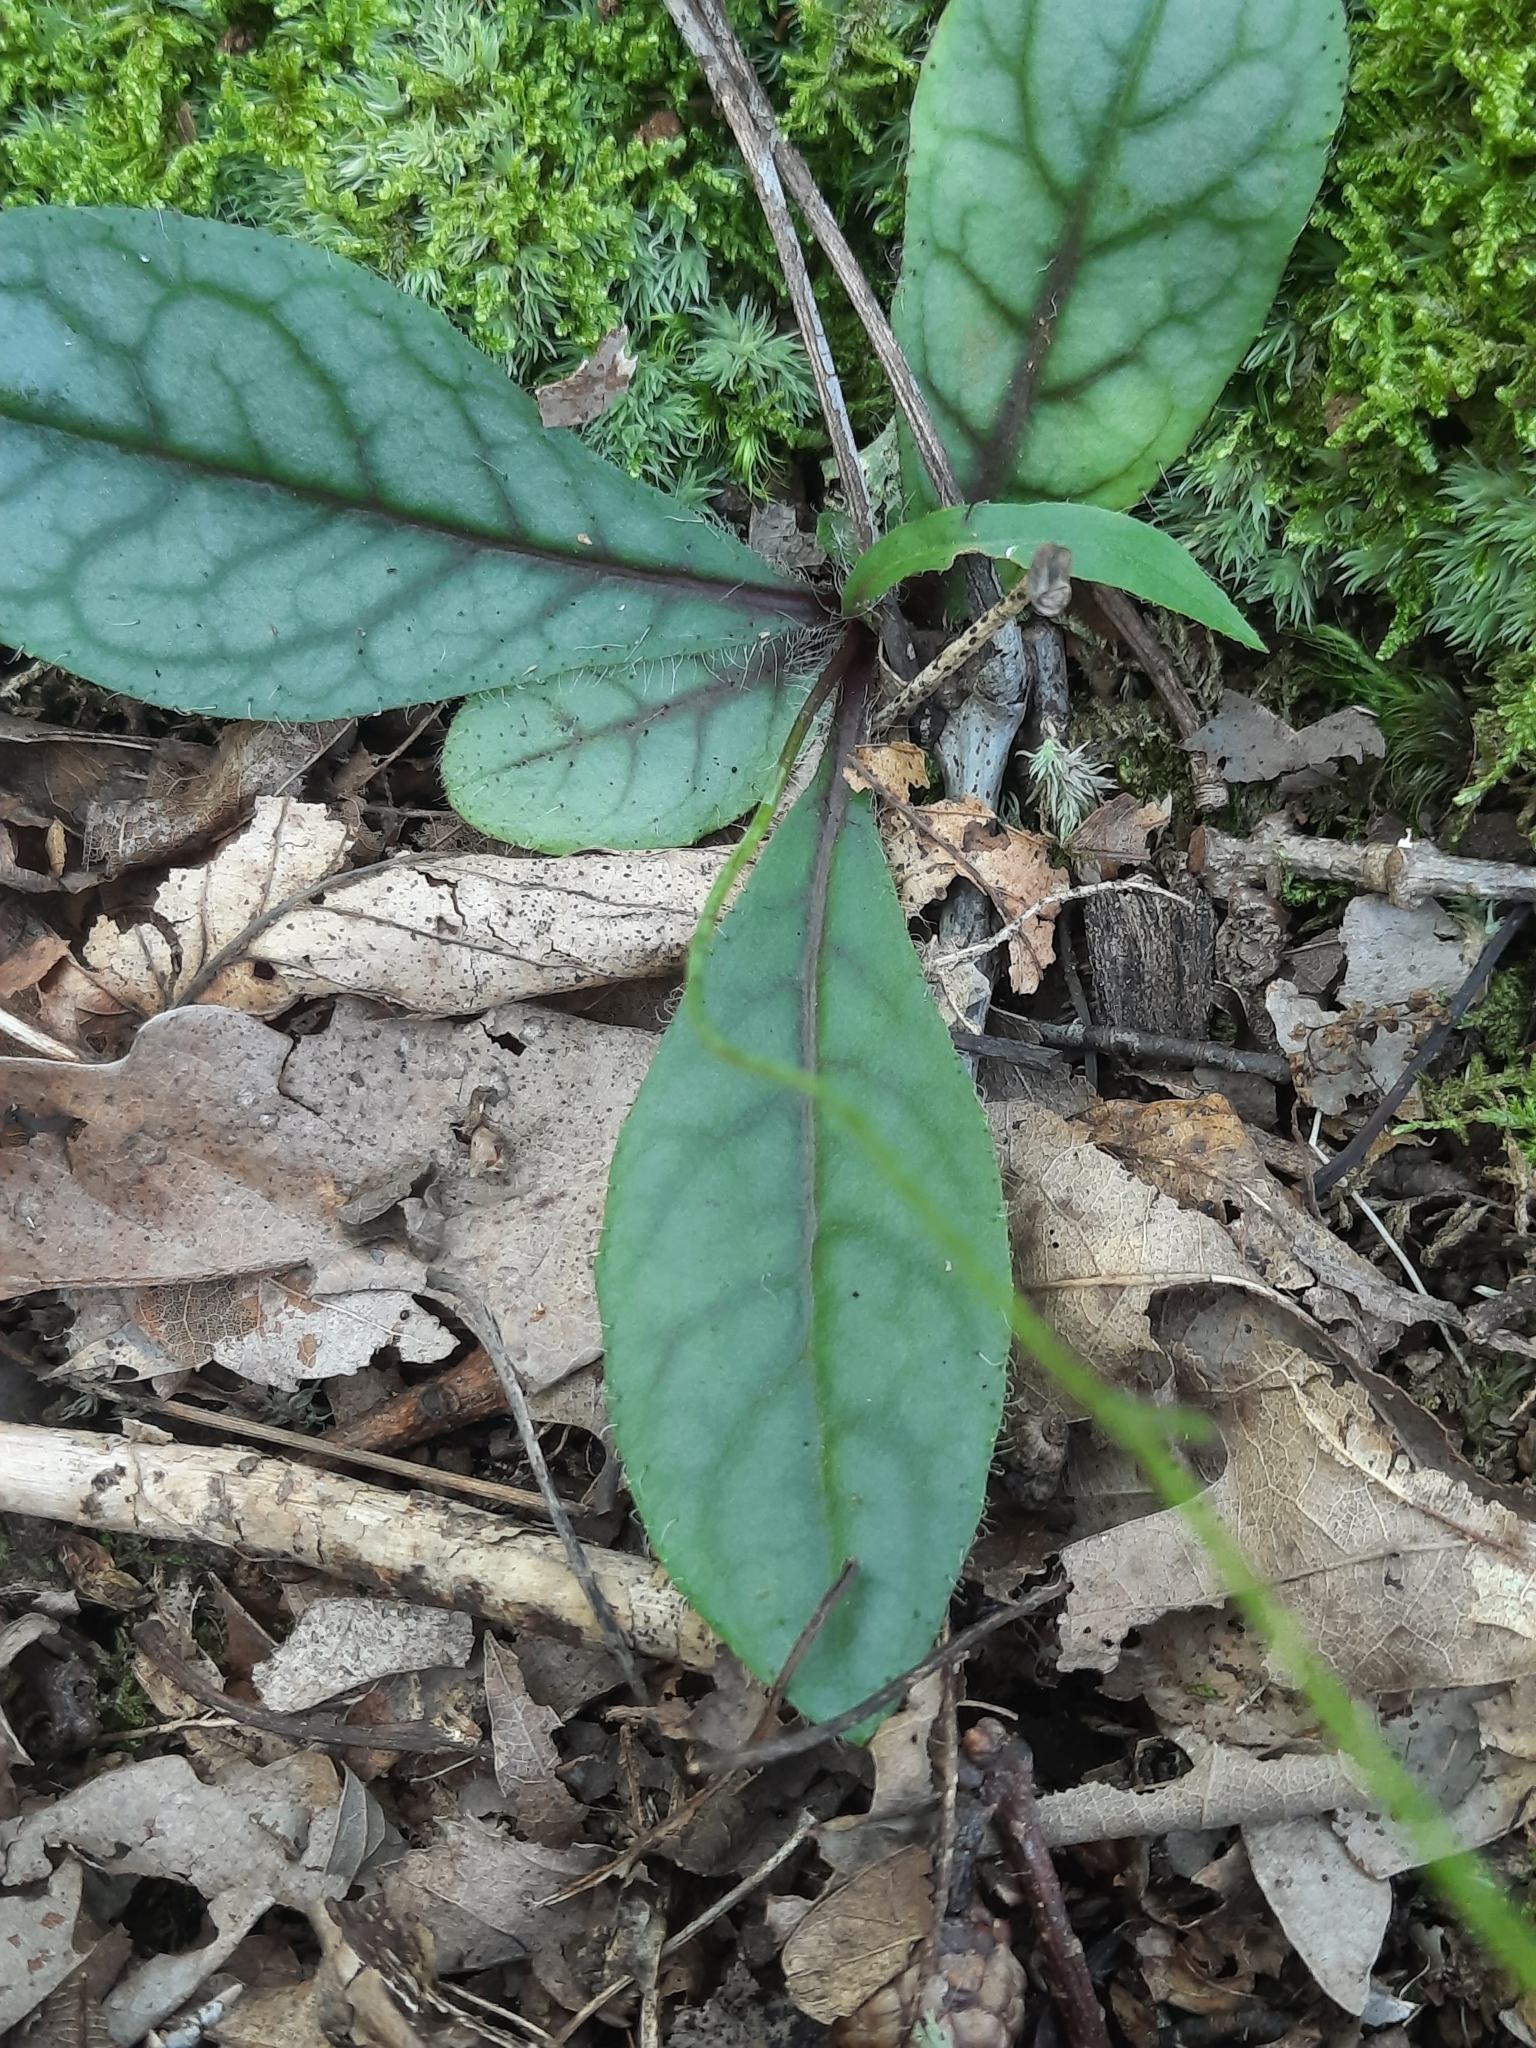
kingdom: Plantae
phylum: Tracheophyta
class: Magnoliopsida
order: Asterales
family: Asteraceae
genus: Hieracium
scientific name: Hieracium venosum
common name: Rattlesnake hawkweed
